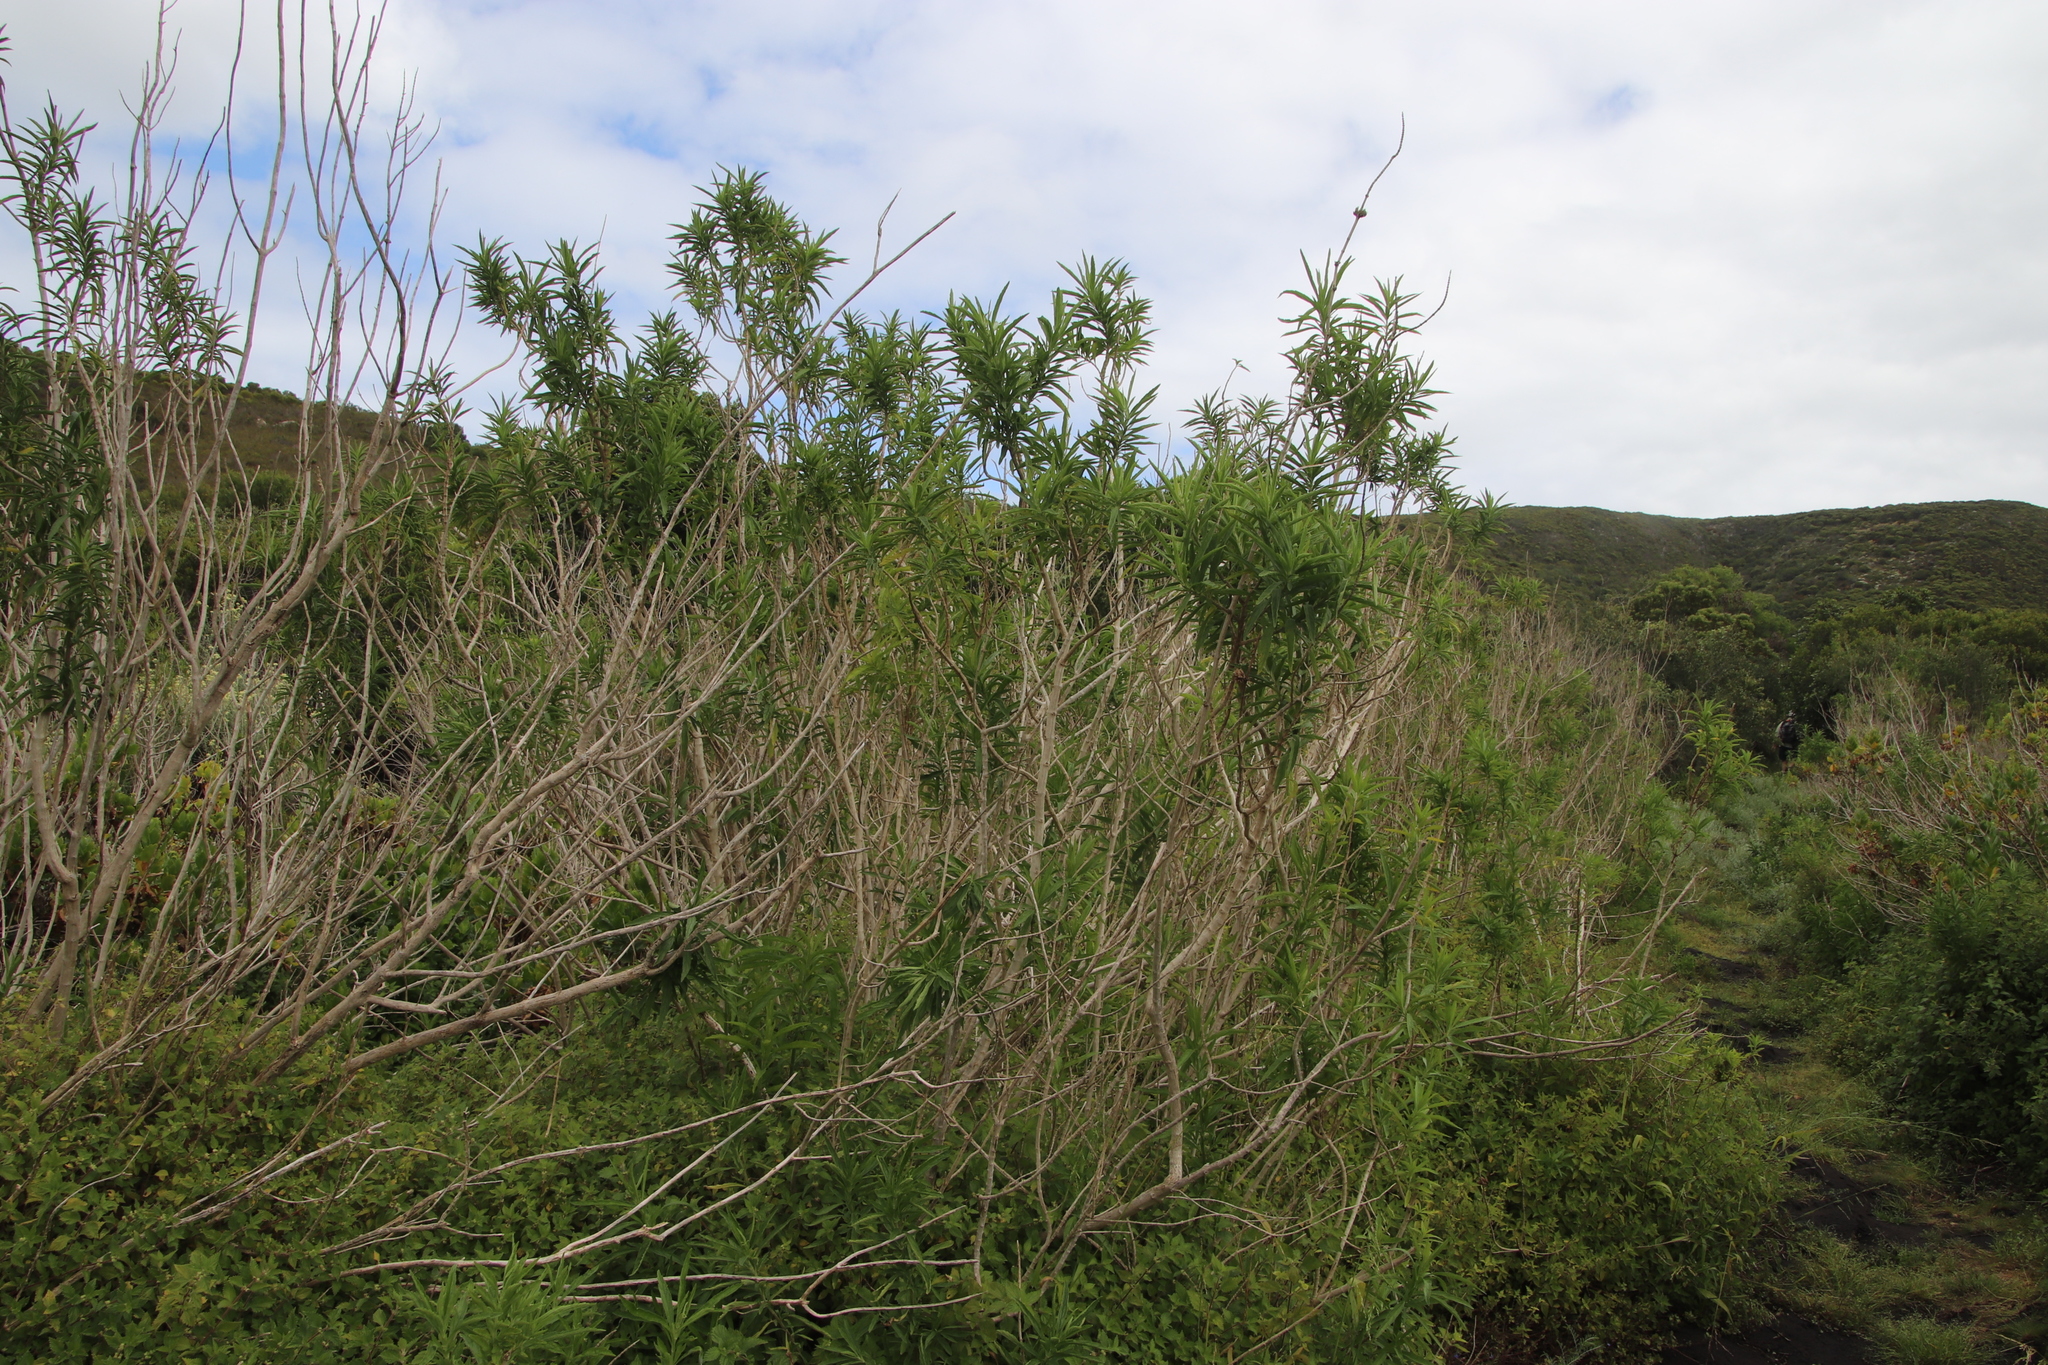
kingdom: Plantae
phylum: Tracheophyta
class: Magnoliopsida
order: Lamiales
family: Lamiaceae
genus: Leonotis
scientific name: Leonotis leonurus
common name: Lion's ear
